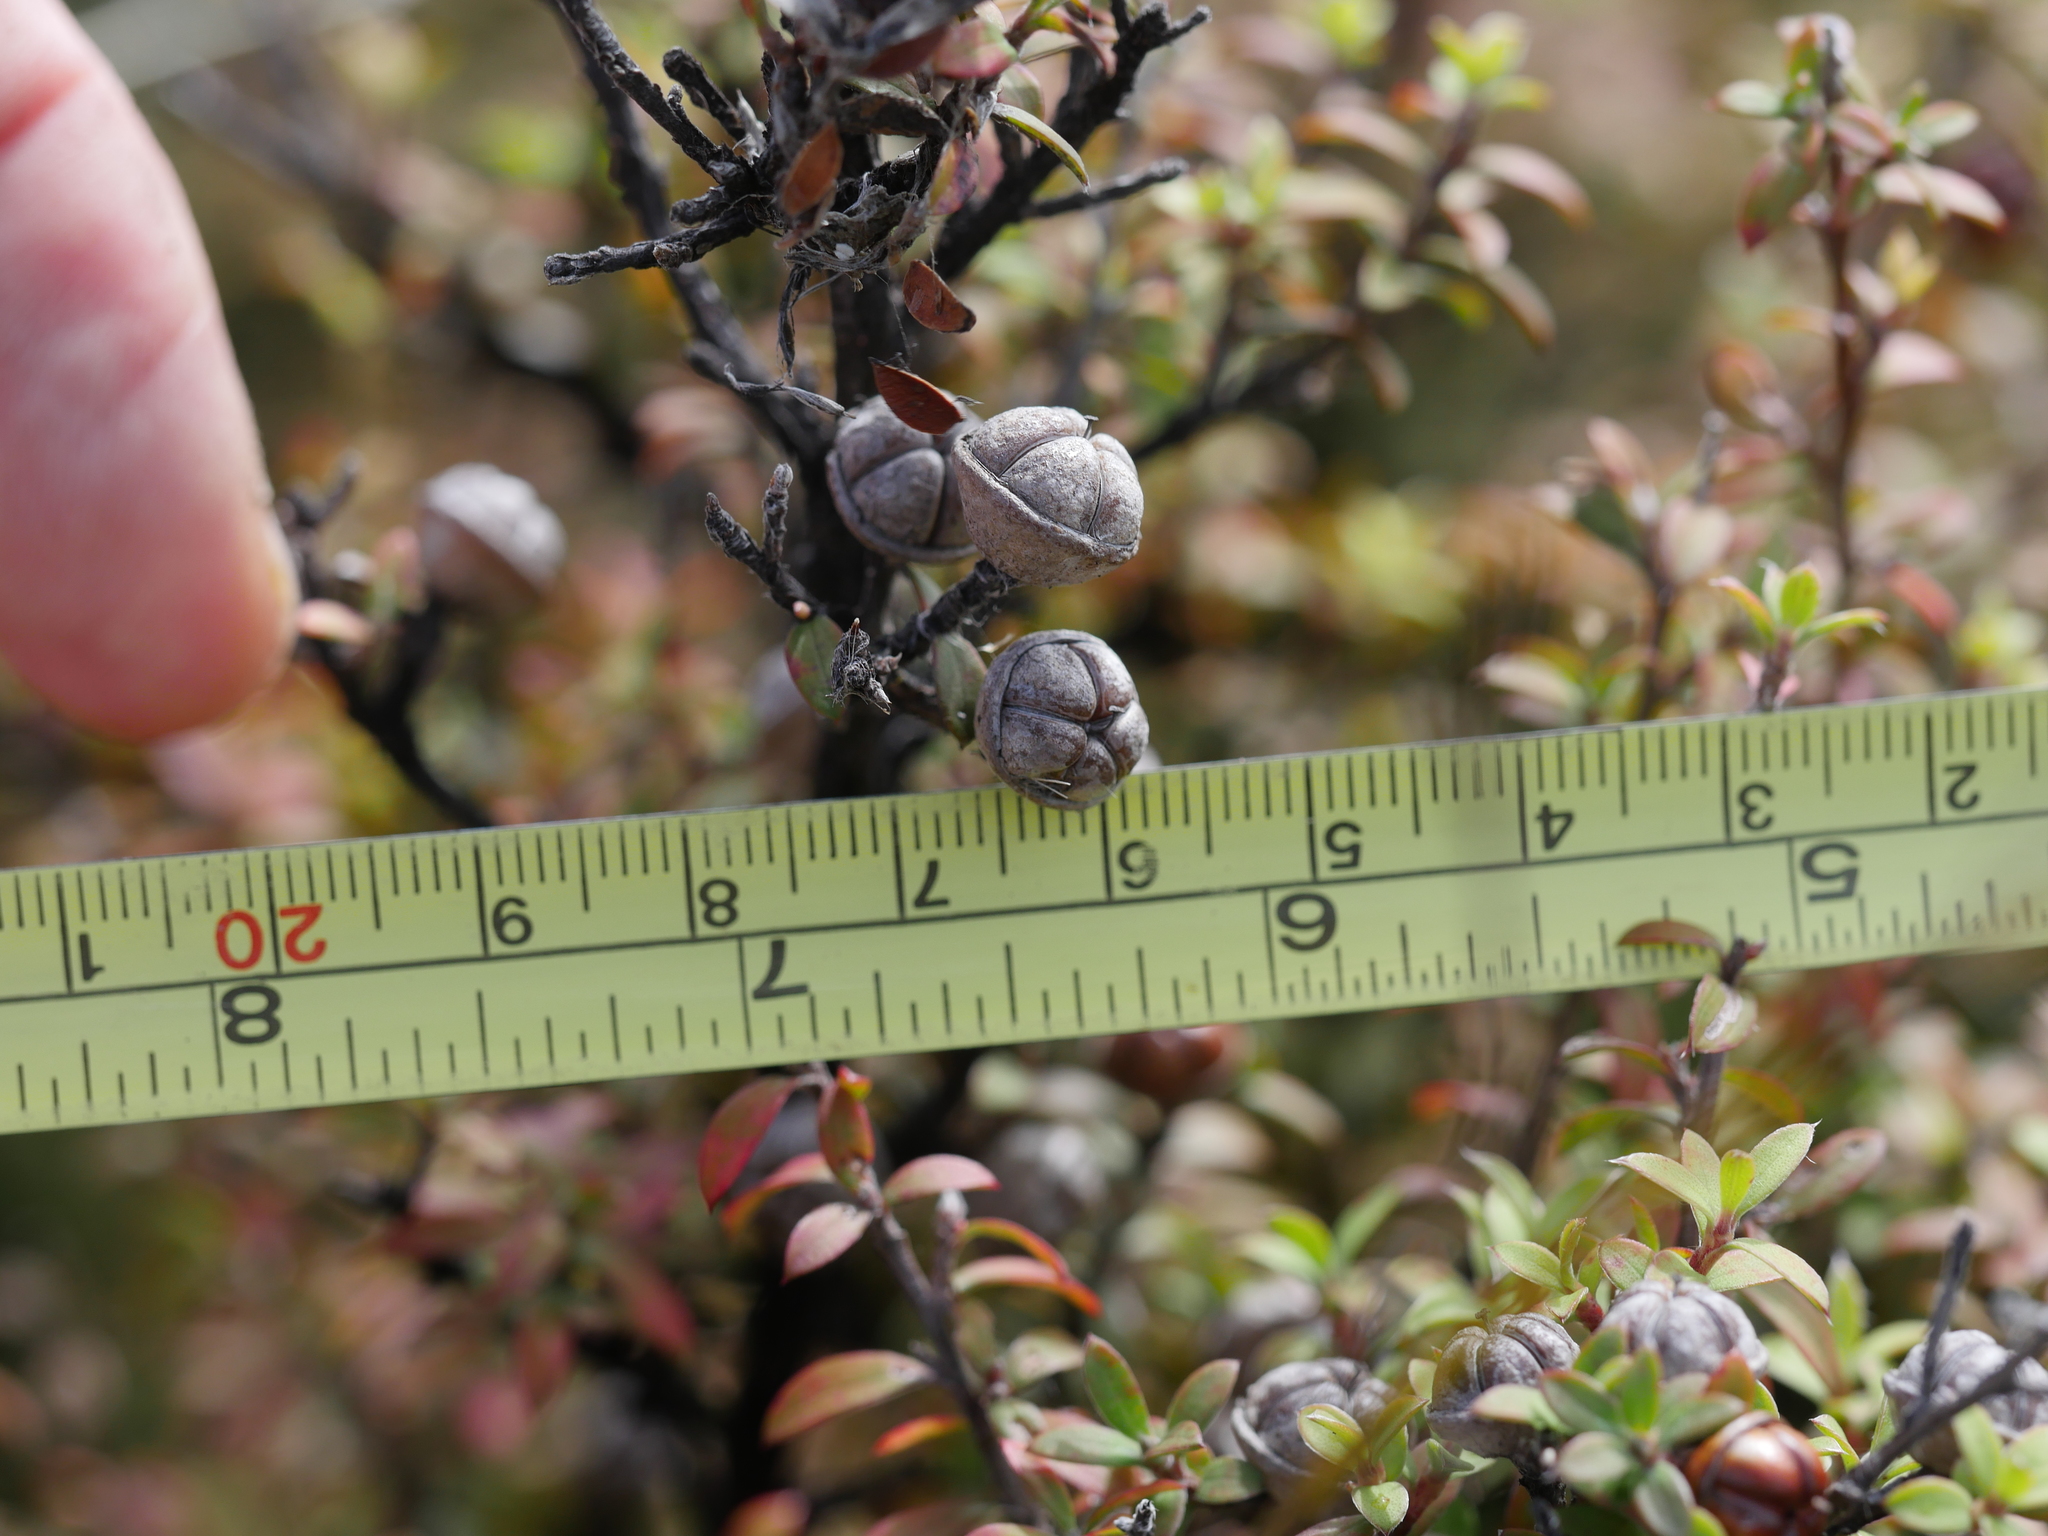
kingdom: Plantae
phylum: Tracheophyta
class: Magnoliopsida
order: Myrtales
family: Myrtaceae
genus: Leptospermum
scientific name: Leptospermum scoparium
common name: Broom tea-tree
